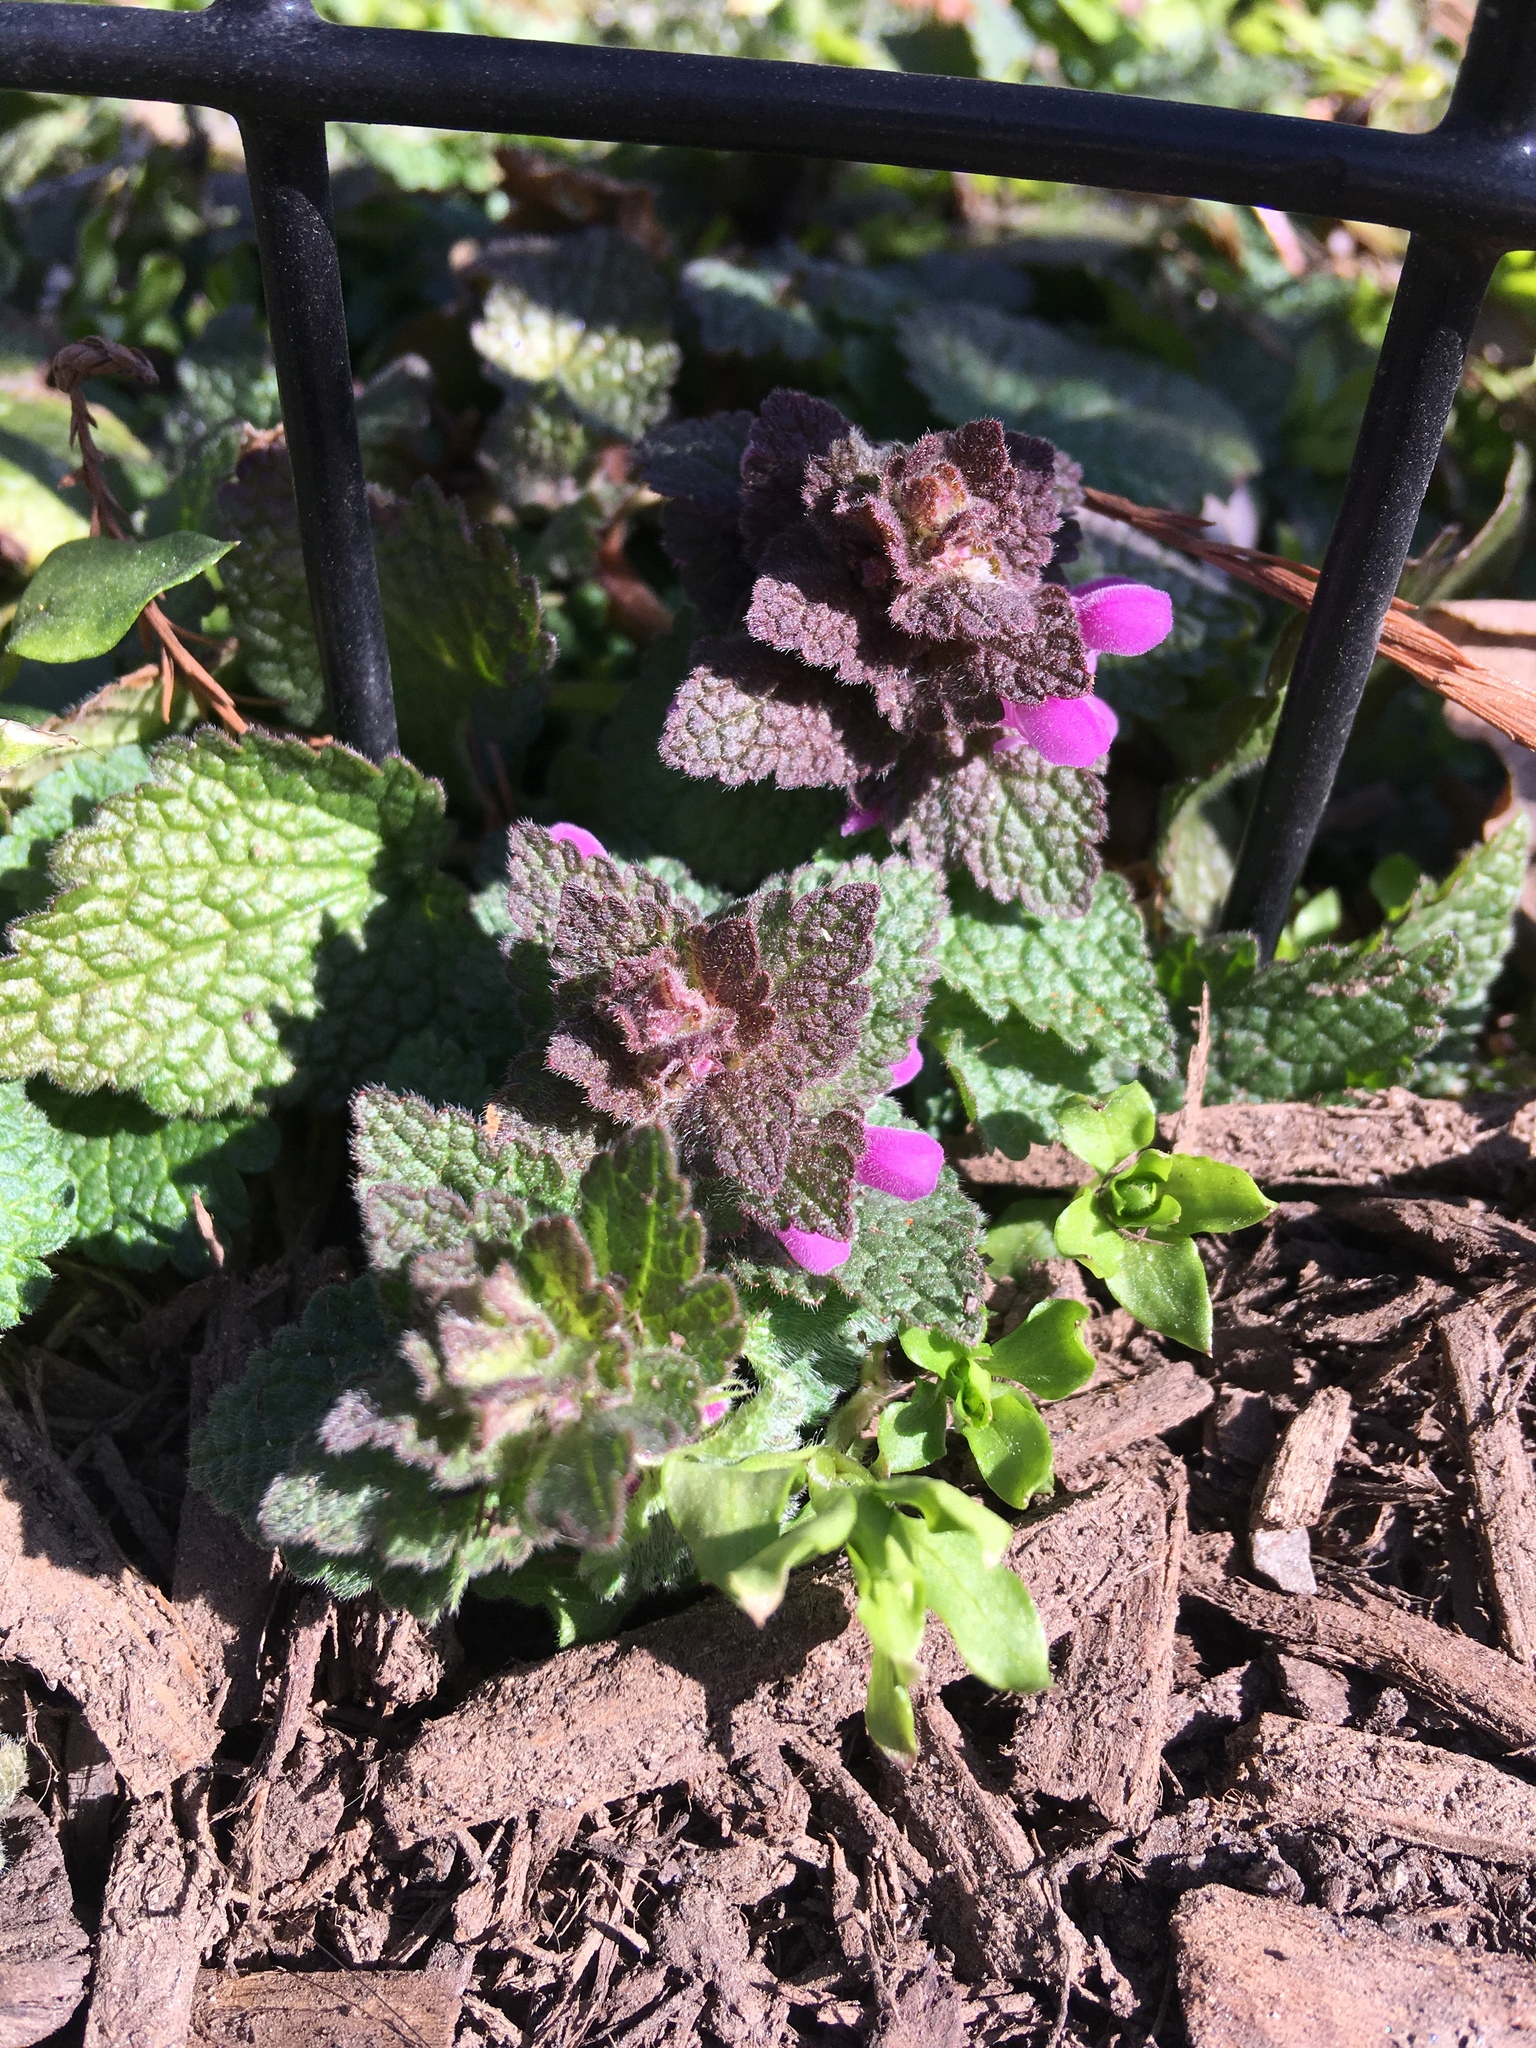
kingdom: Plantae
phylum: Tracheophyta
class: Magnoliopsida
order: Lamiales
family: Lamiaceae
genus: Lamium
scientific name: Lamium purpureum
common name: Red dead-nettle
